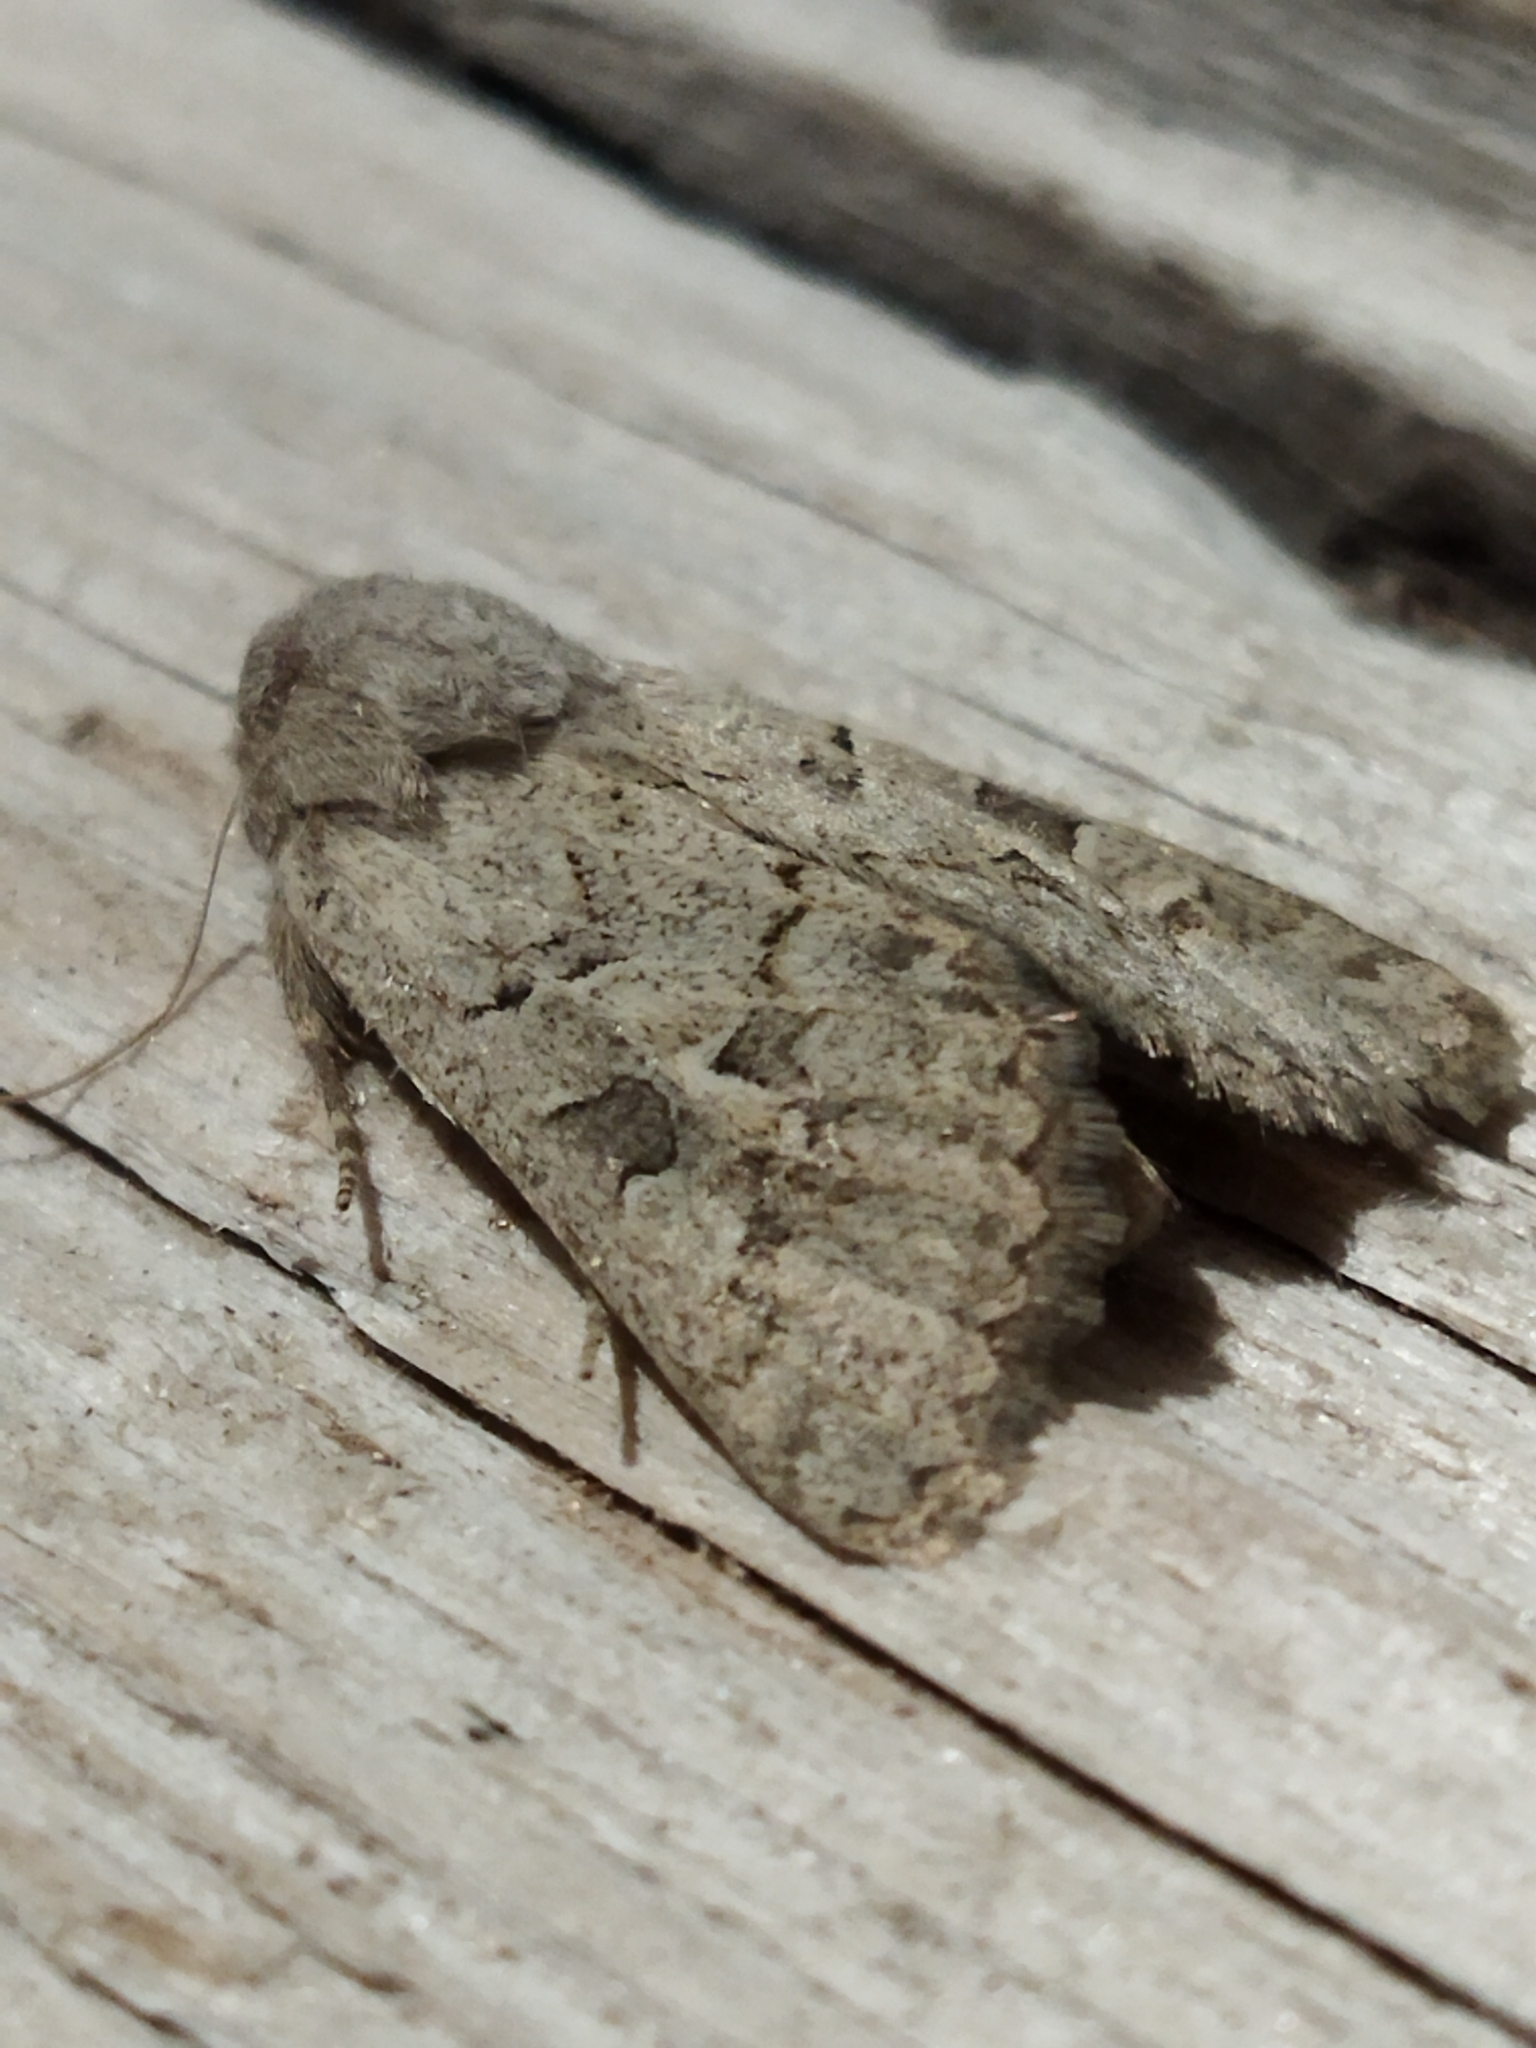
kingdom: Animalia
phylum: Arthropoda
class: Insecta
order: Lepidoptera
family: Noctuidae
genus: Episema
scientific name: Episema lederi
